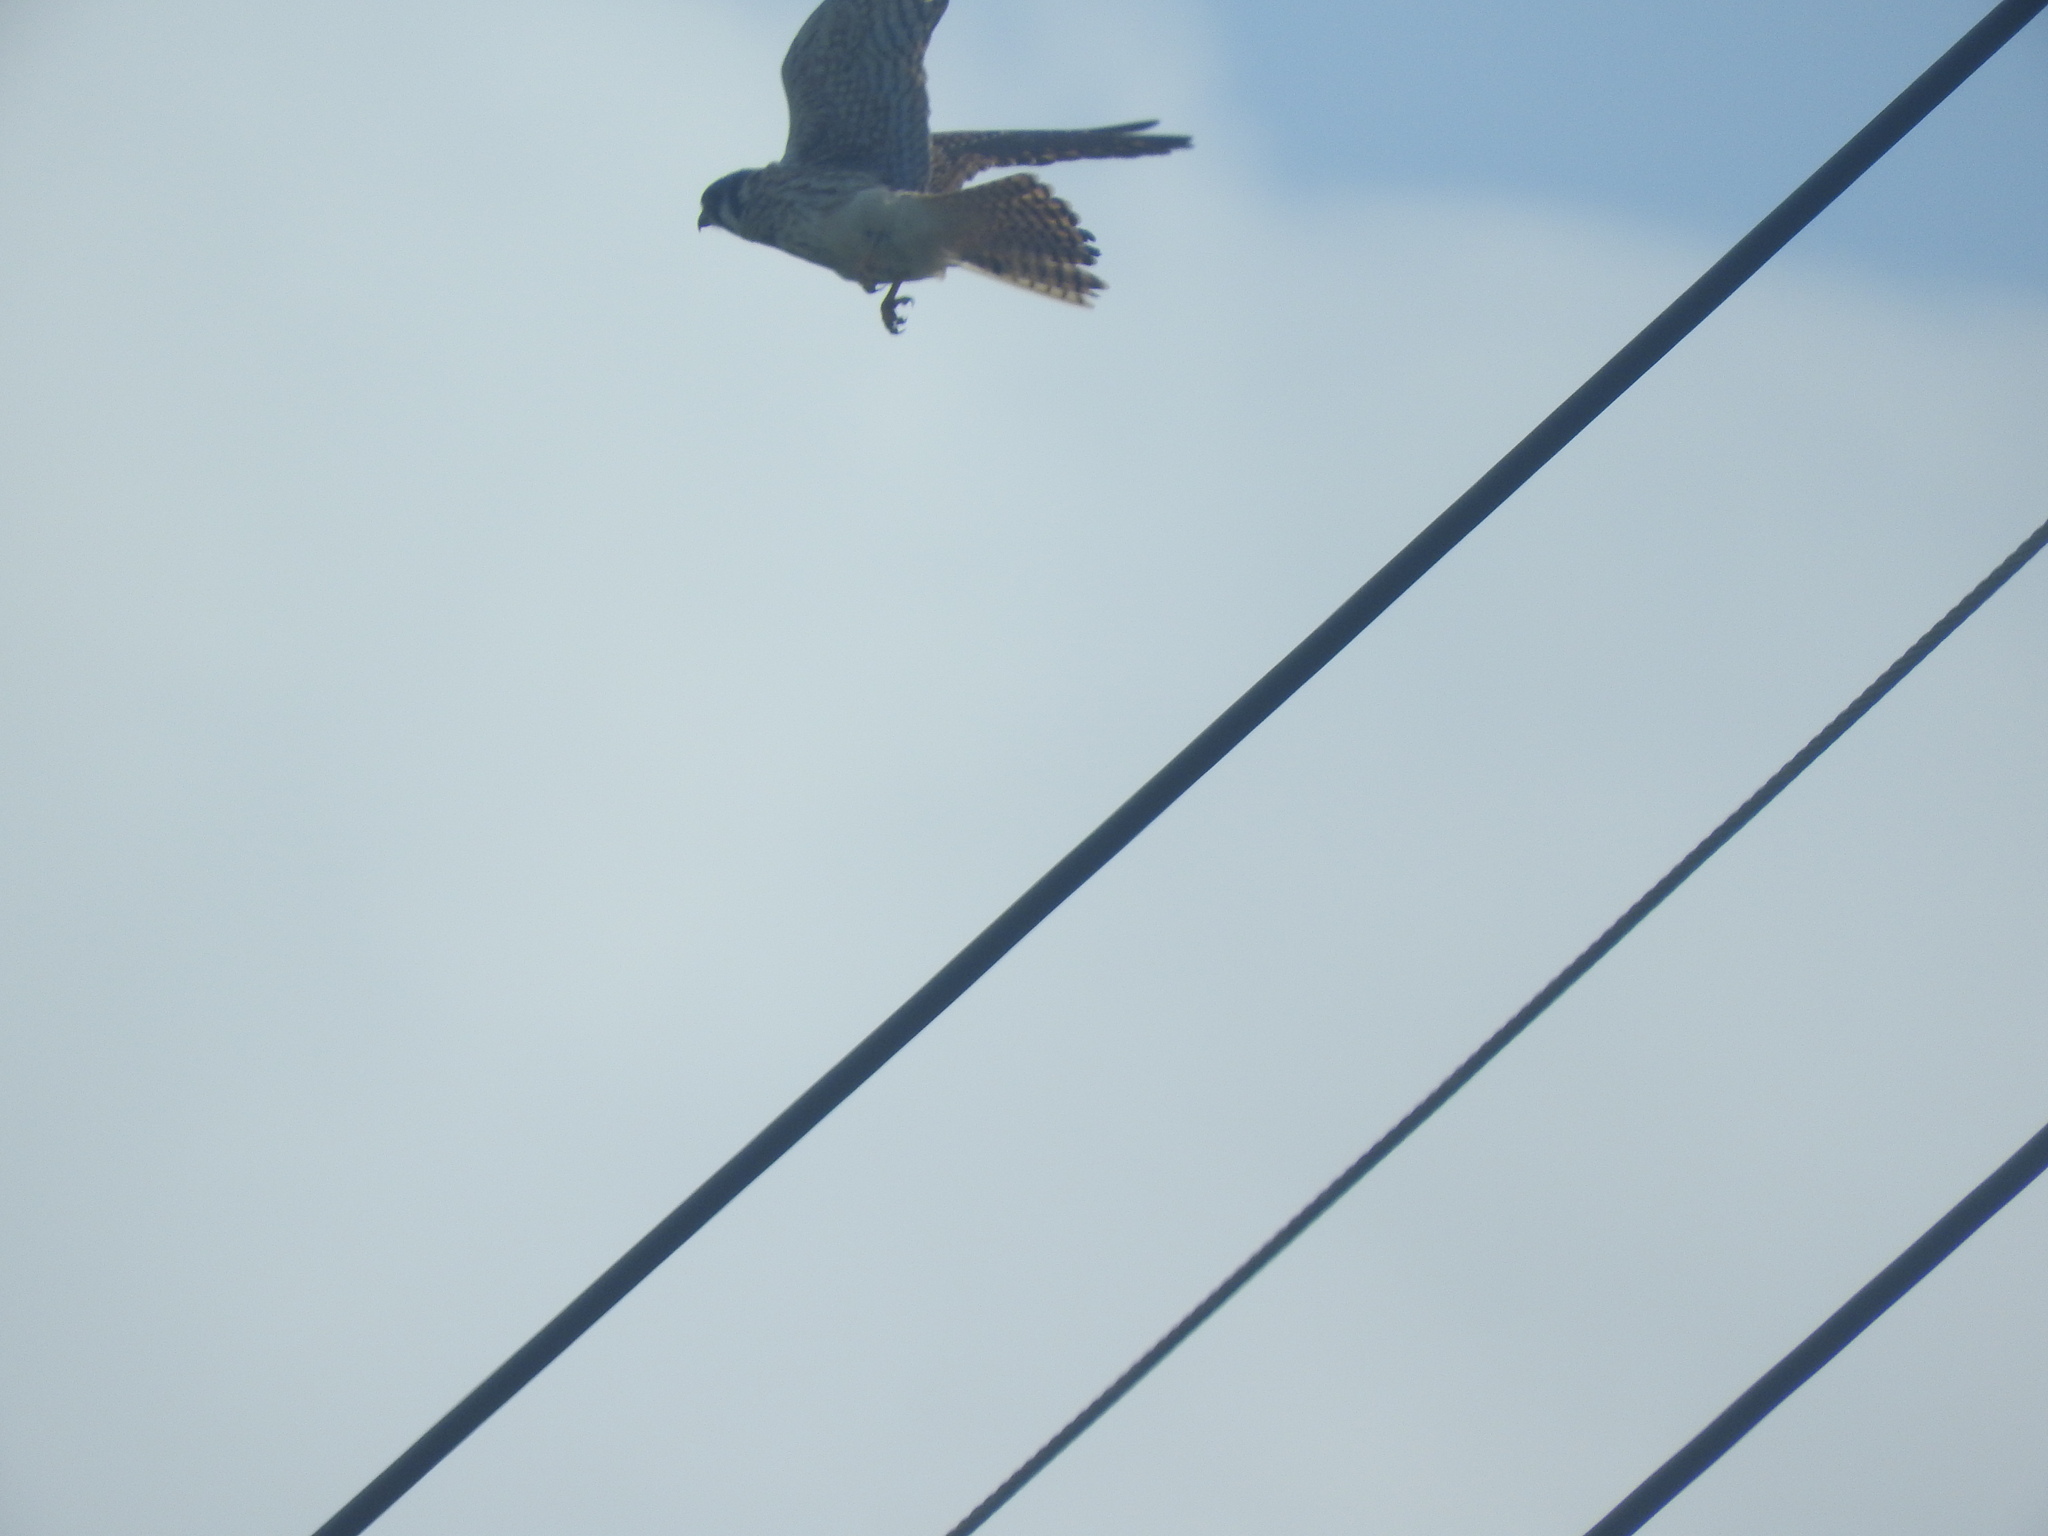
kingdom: Animalia
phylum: Chordata
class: Aves
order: Falconiformes
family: Falconidae
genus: Falco
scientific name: Falco sparverius
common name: American kestrel
